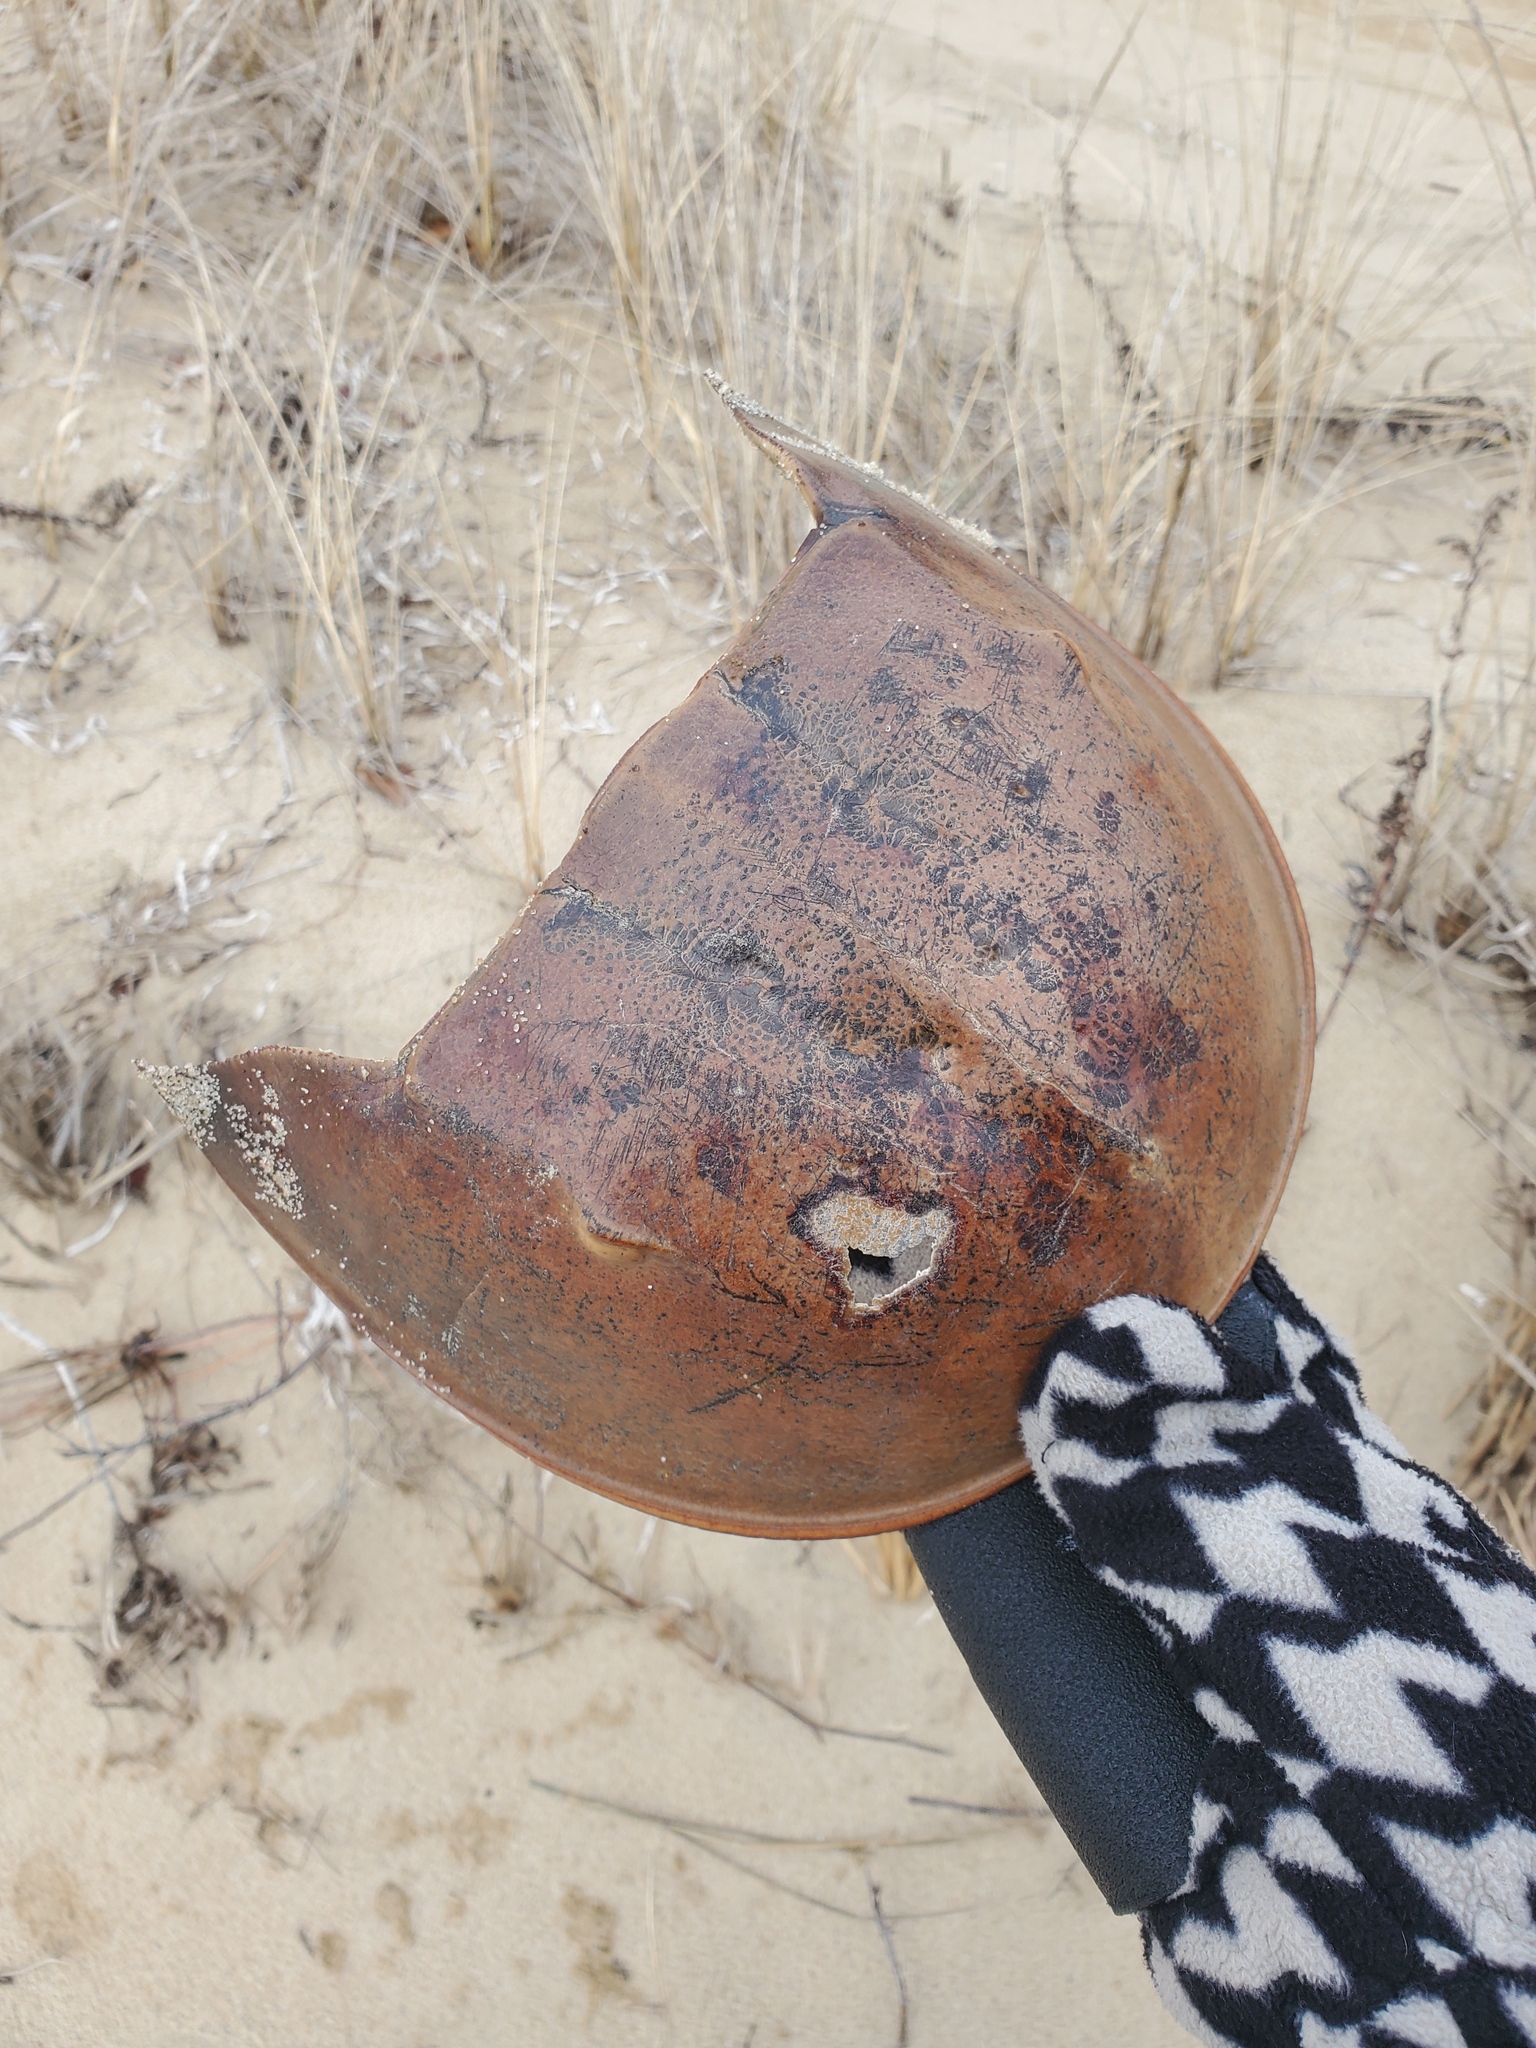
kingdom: Animalia
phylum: Arthropoda
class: Merostomata
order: Xiphosurida
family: Limulidae
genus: Limulus
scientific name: Limulus polyphemus
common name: Horseshoe crab
